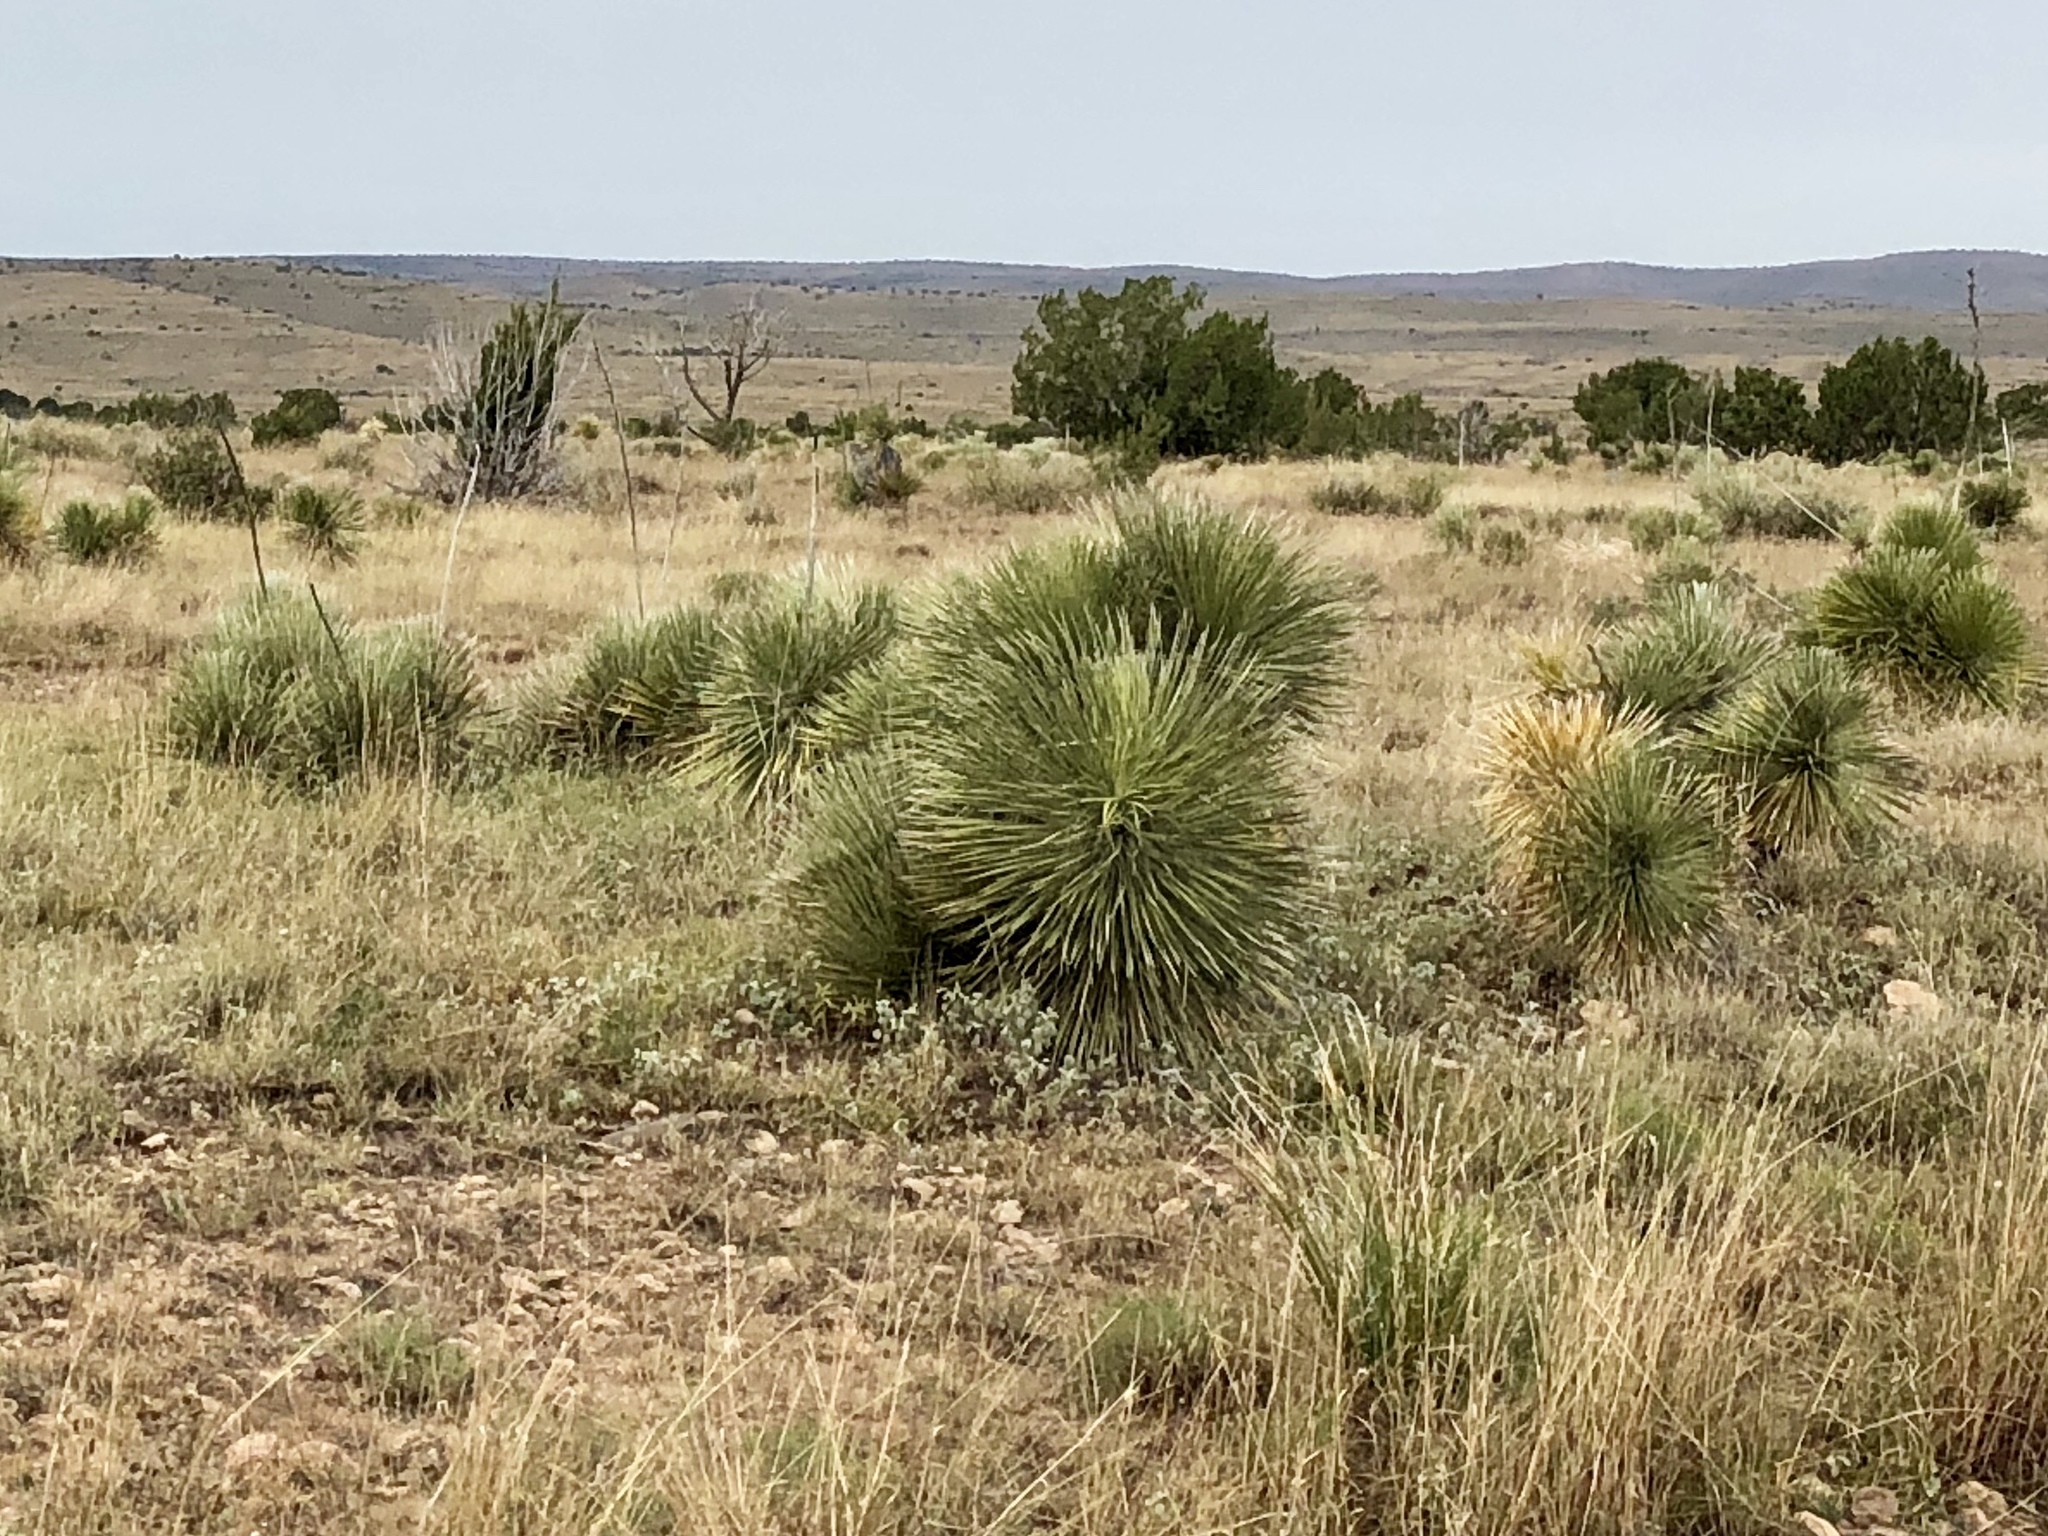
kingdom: Plantae
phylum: Tracheophyta
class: Liliopsida
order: Asparagales
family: Asparagaceae
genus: Yucca
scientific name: Yucca elata
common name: Palmella
